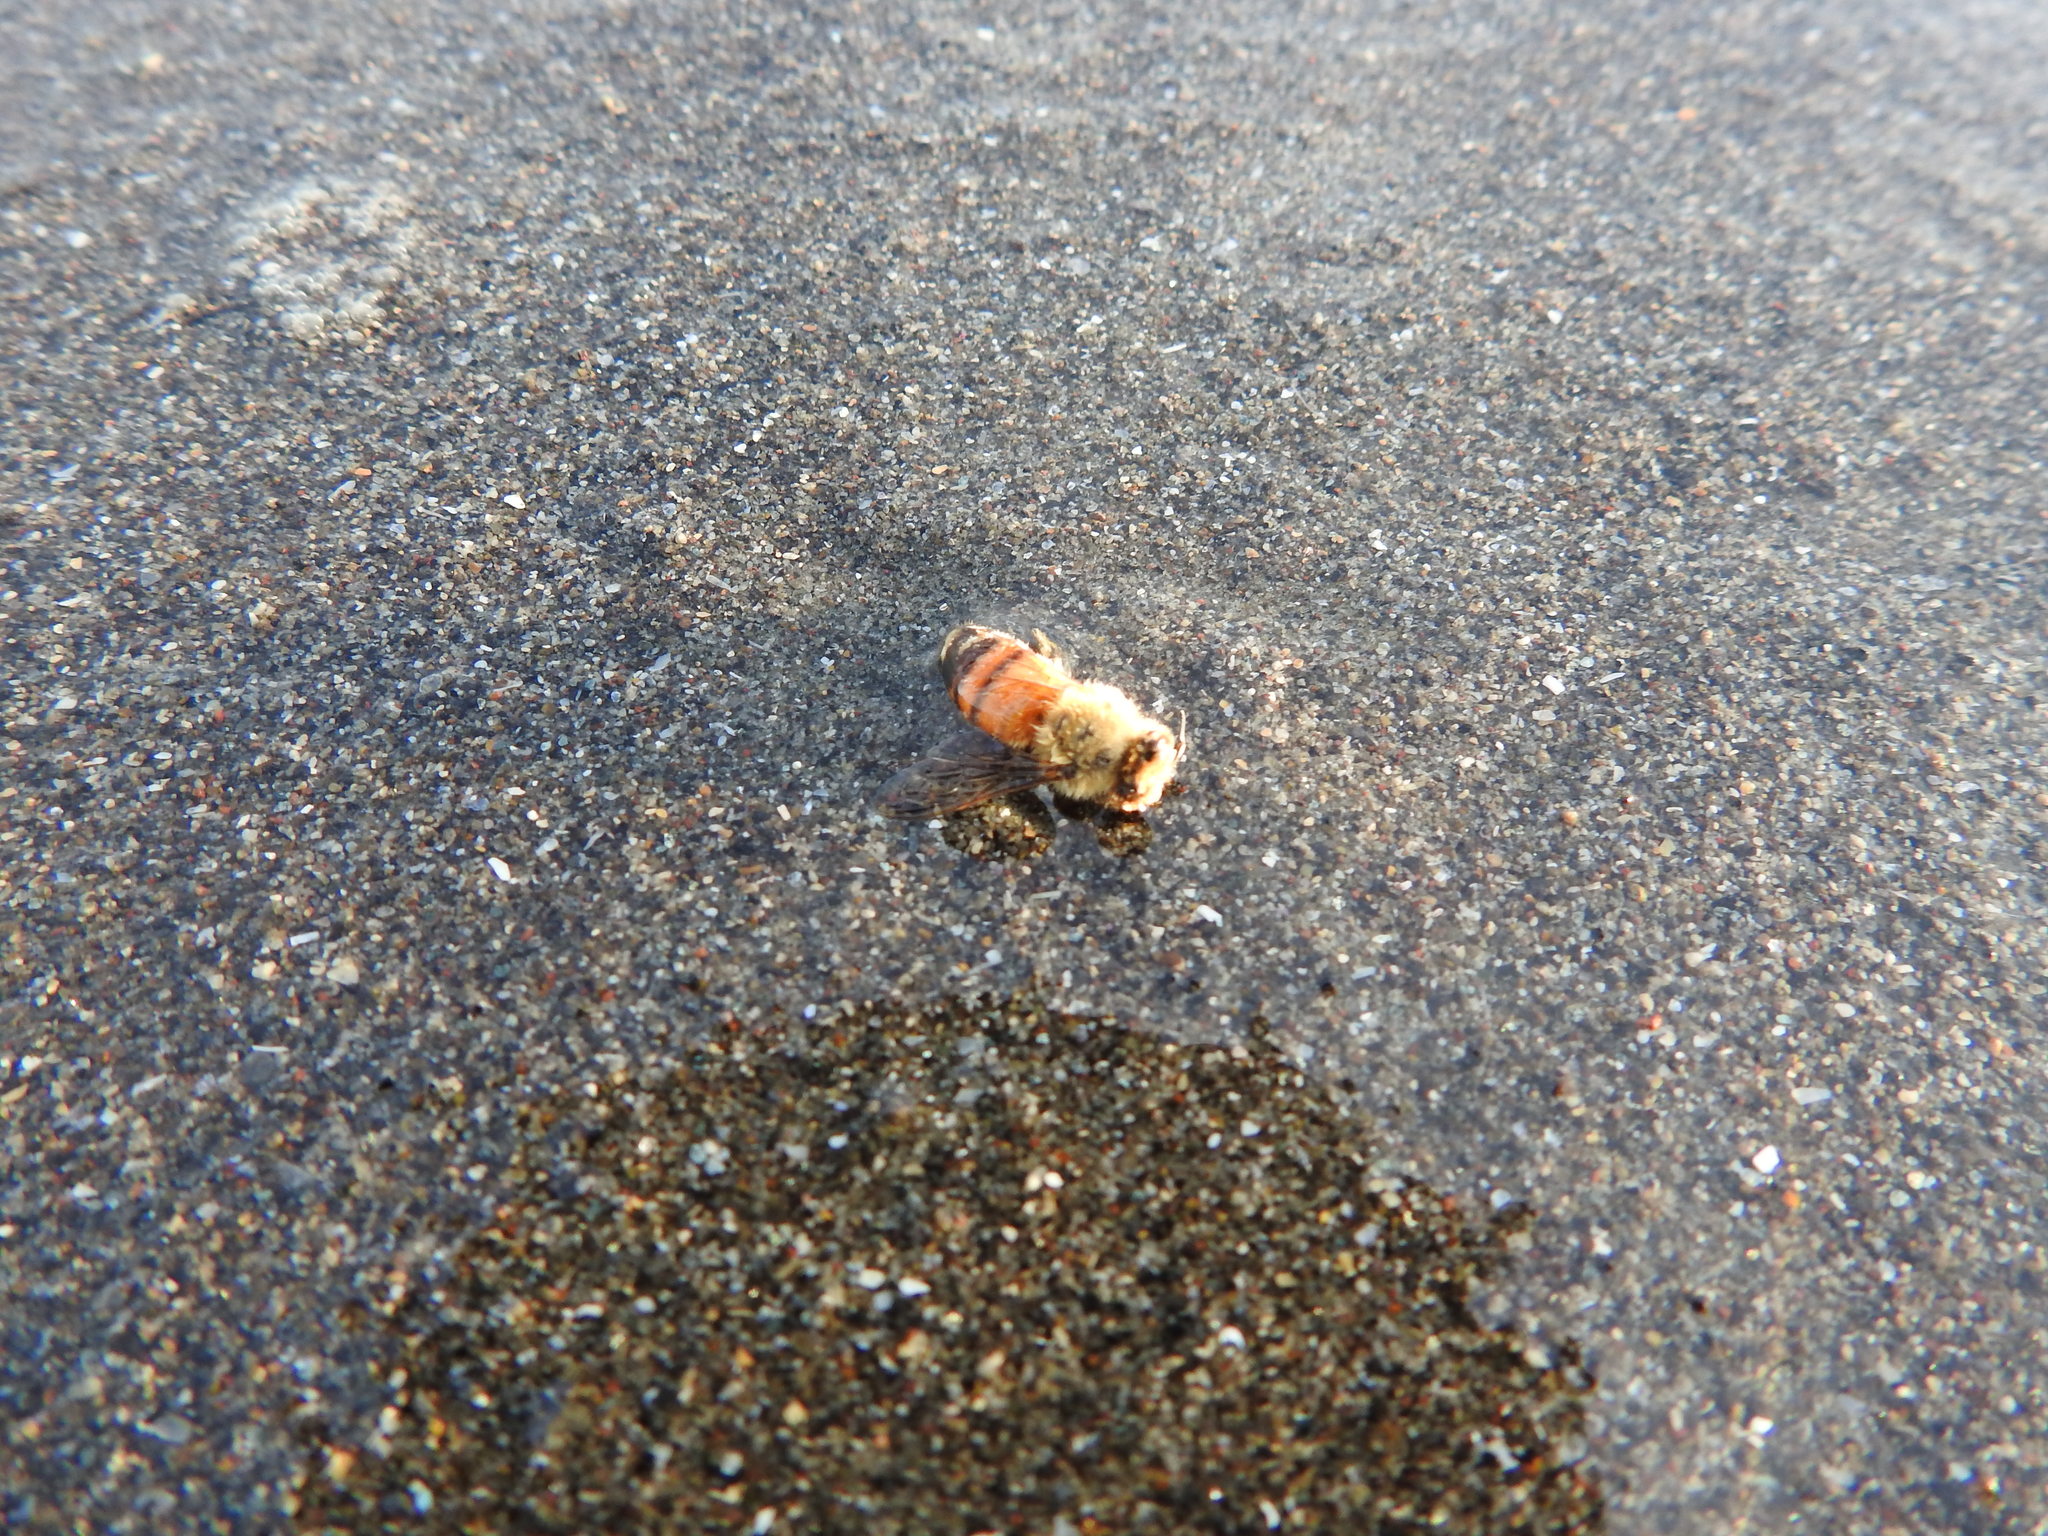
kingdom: Animalia
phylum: Arthropoda
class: Insecta
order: Hymenoptera
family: Apidae
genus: Apis
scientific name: Apis mellifera
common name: Honey bee
